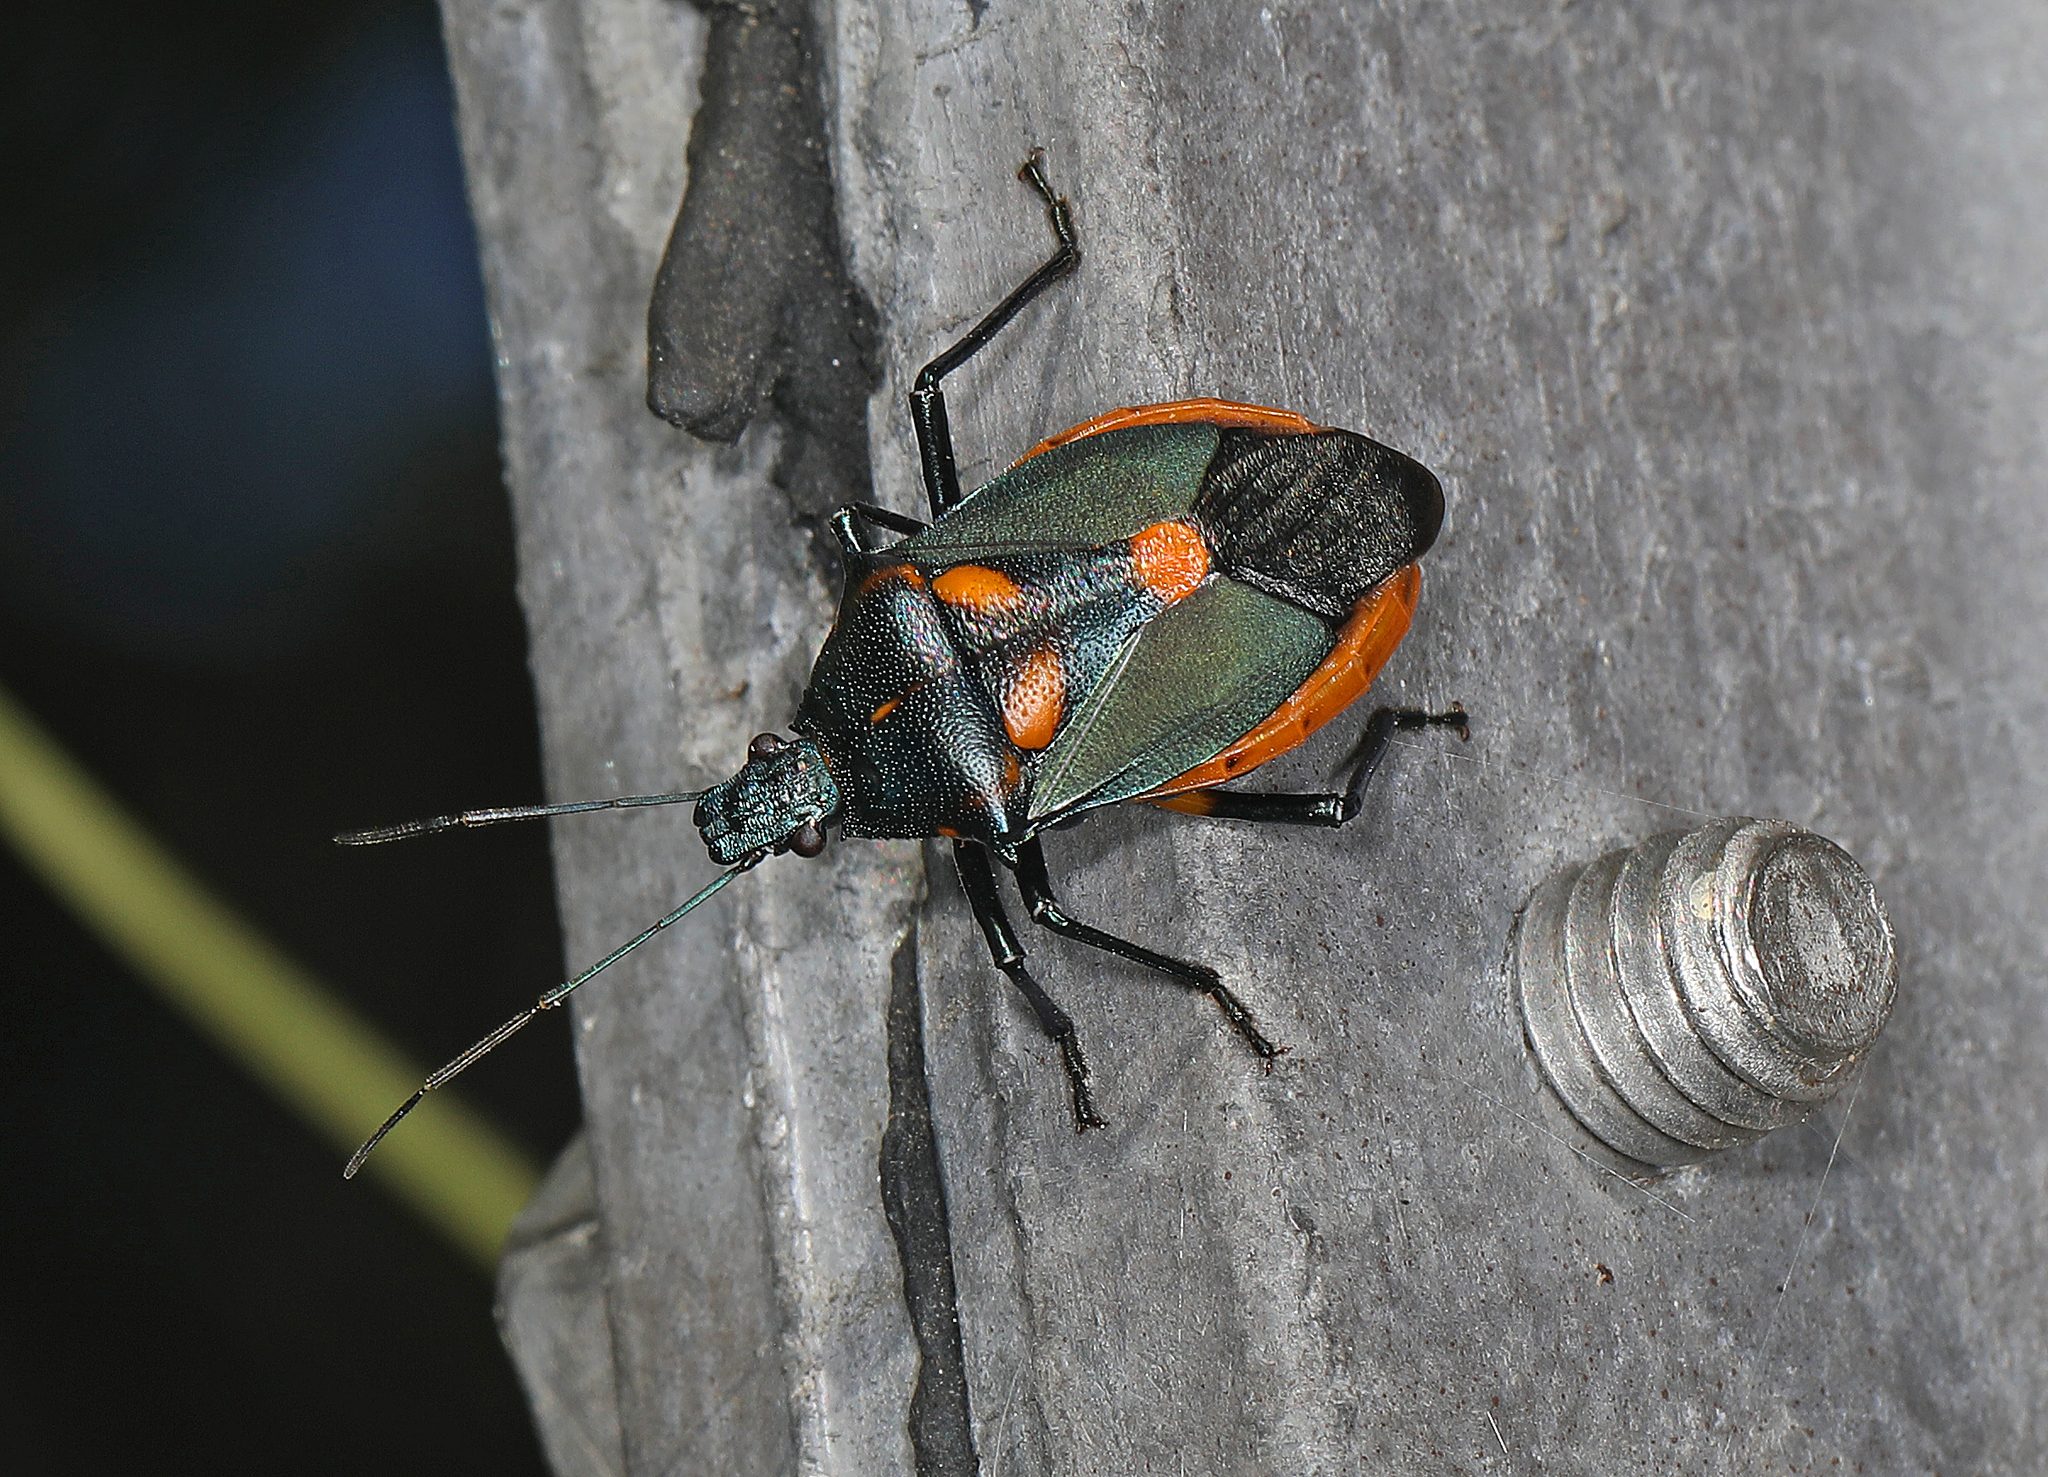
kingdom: Animalia
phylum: Arthropoda
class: Insecta
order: Hemiptera
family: Pentatomidae
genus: Euthyrhynchus
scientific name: Euthyrhynchus floridanus
